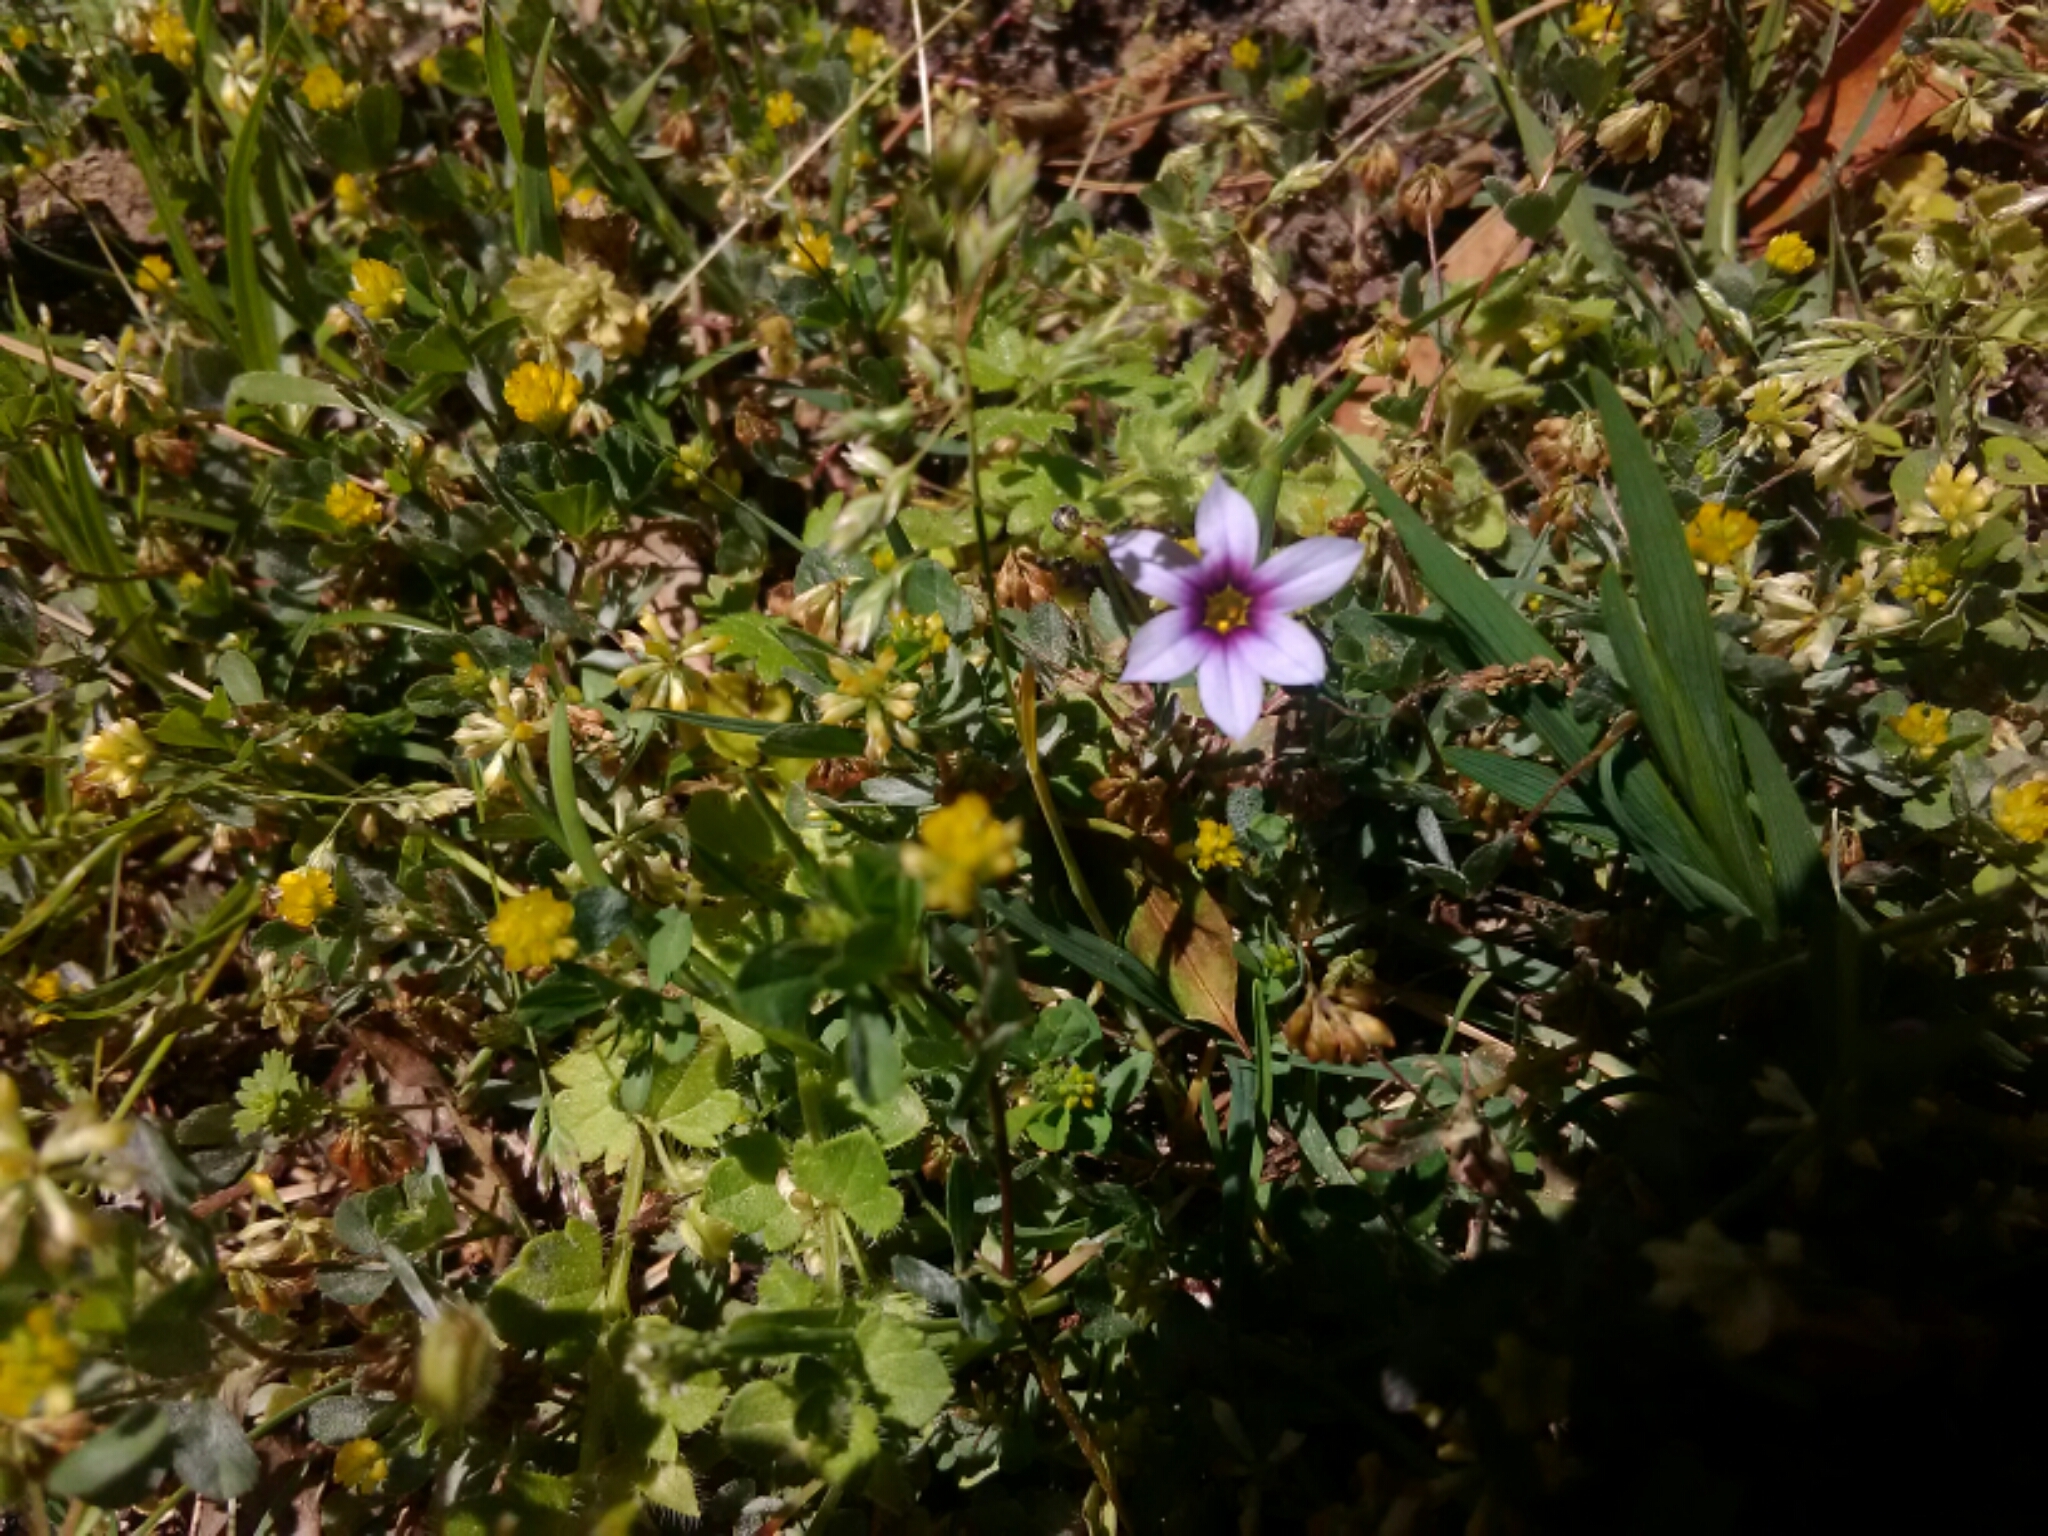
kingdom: Plantae
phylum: Tracheophyta
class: Liliopsida
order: Asparagales
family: Iridaceae
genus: Sisyrinchium
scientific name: Sisyrinchium micranthum
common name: Bermuda pigroot
